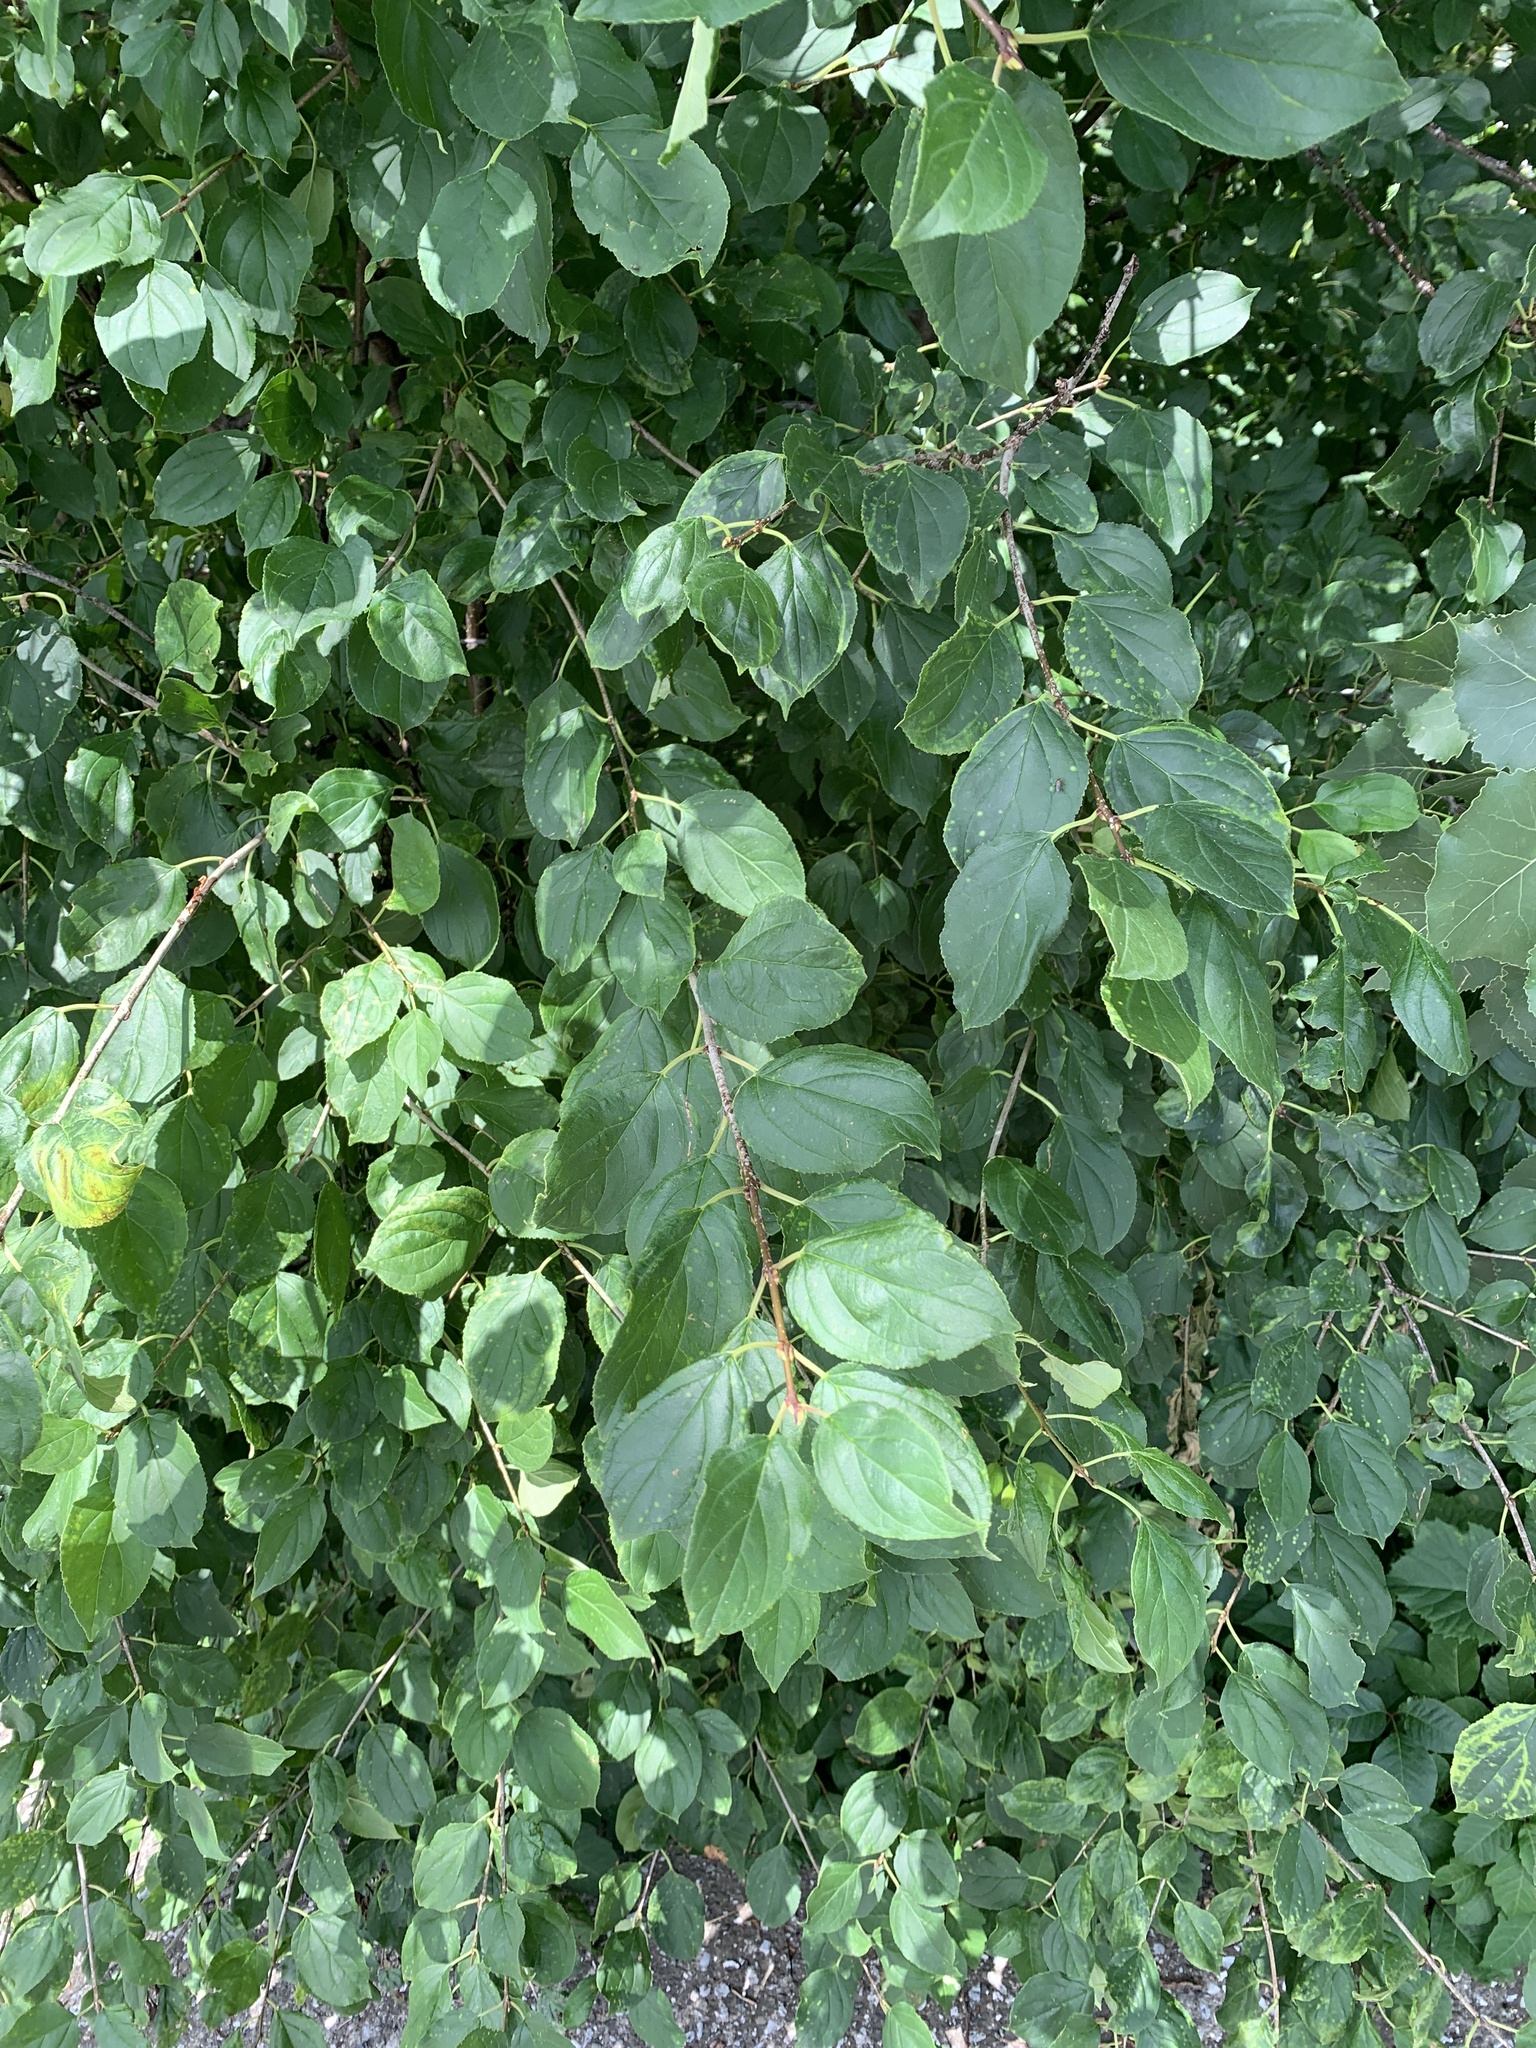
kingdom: Plantae
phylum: Tracheophyta
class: Magnoliopsida
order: Rosales
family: Rhamnaceae
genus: Rhamnus
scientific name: Rhamnus cathartica
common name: Common buckthorn
